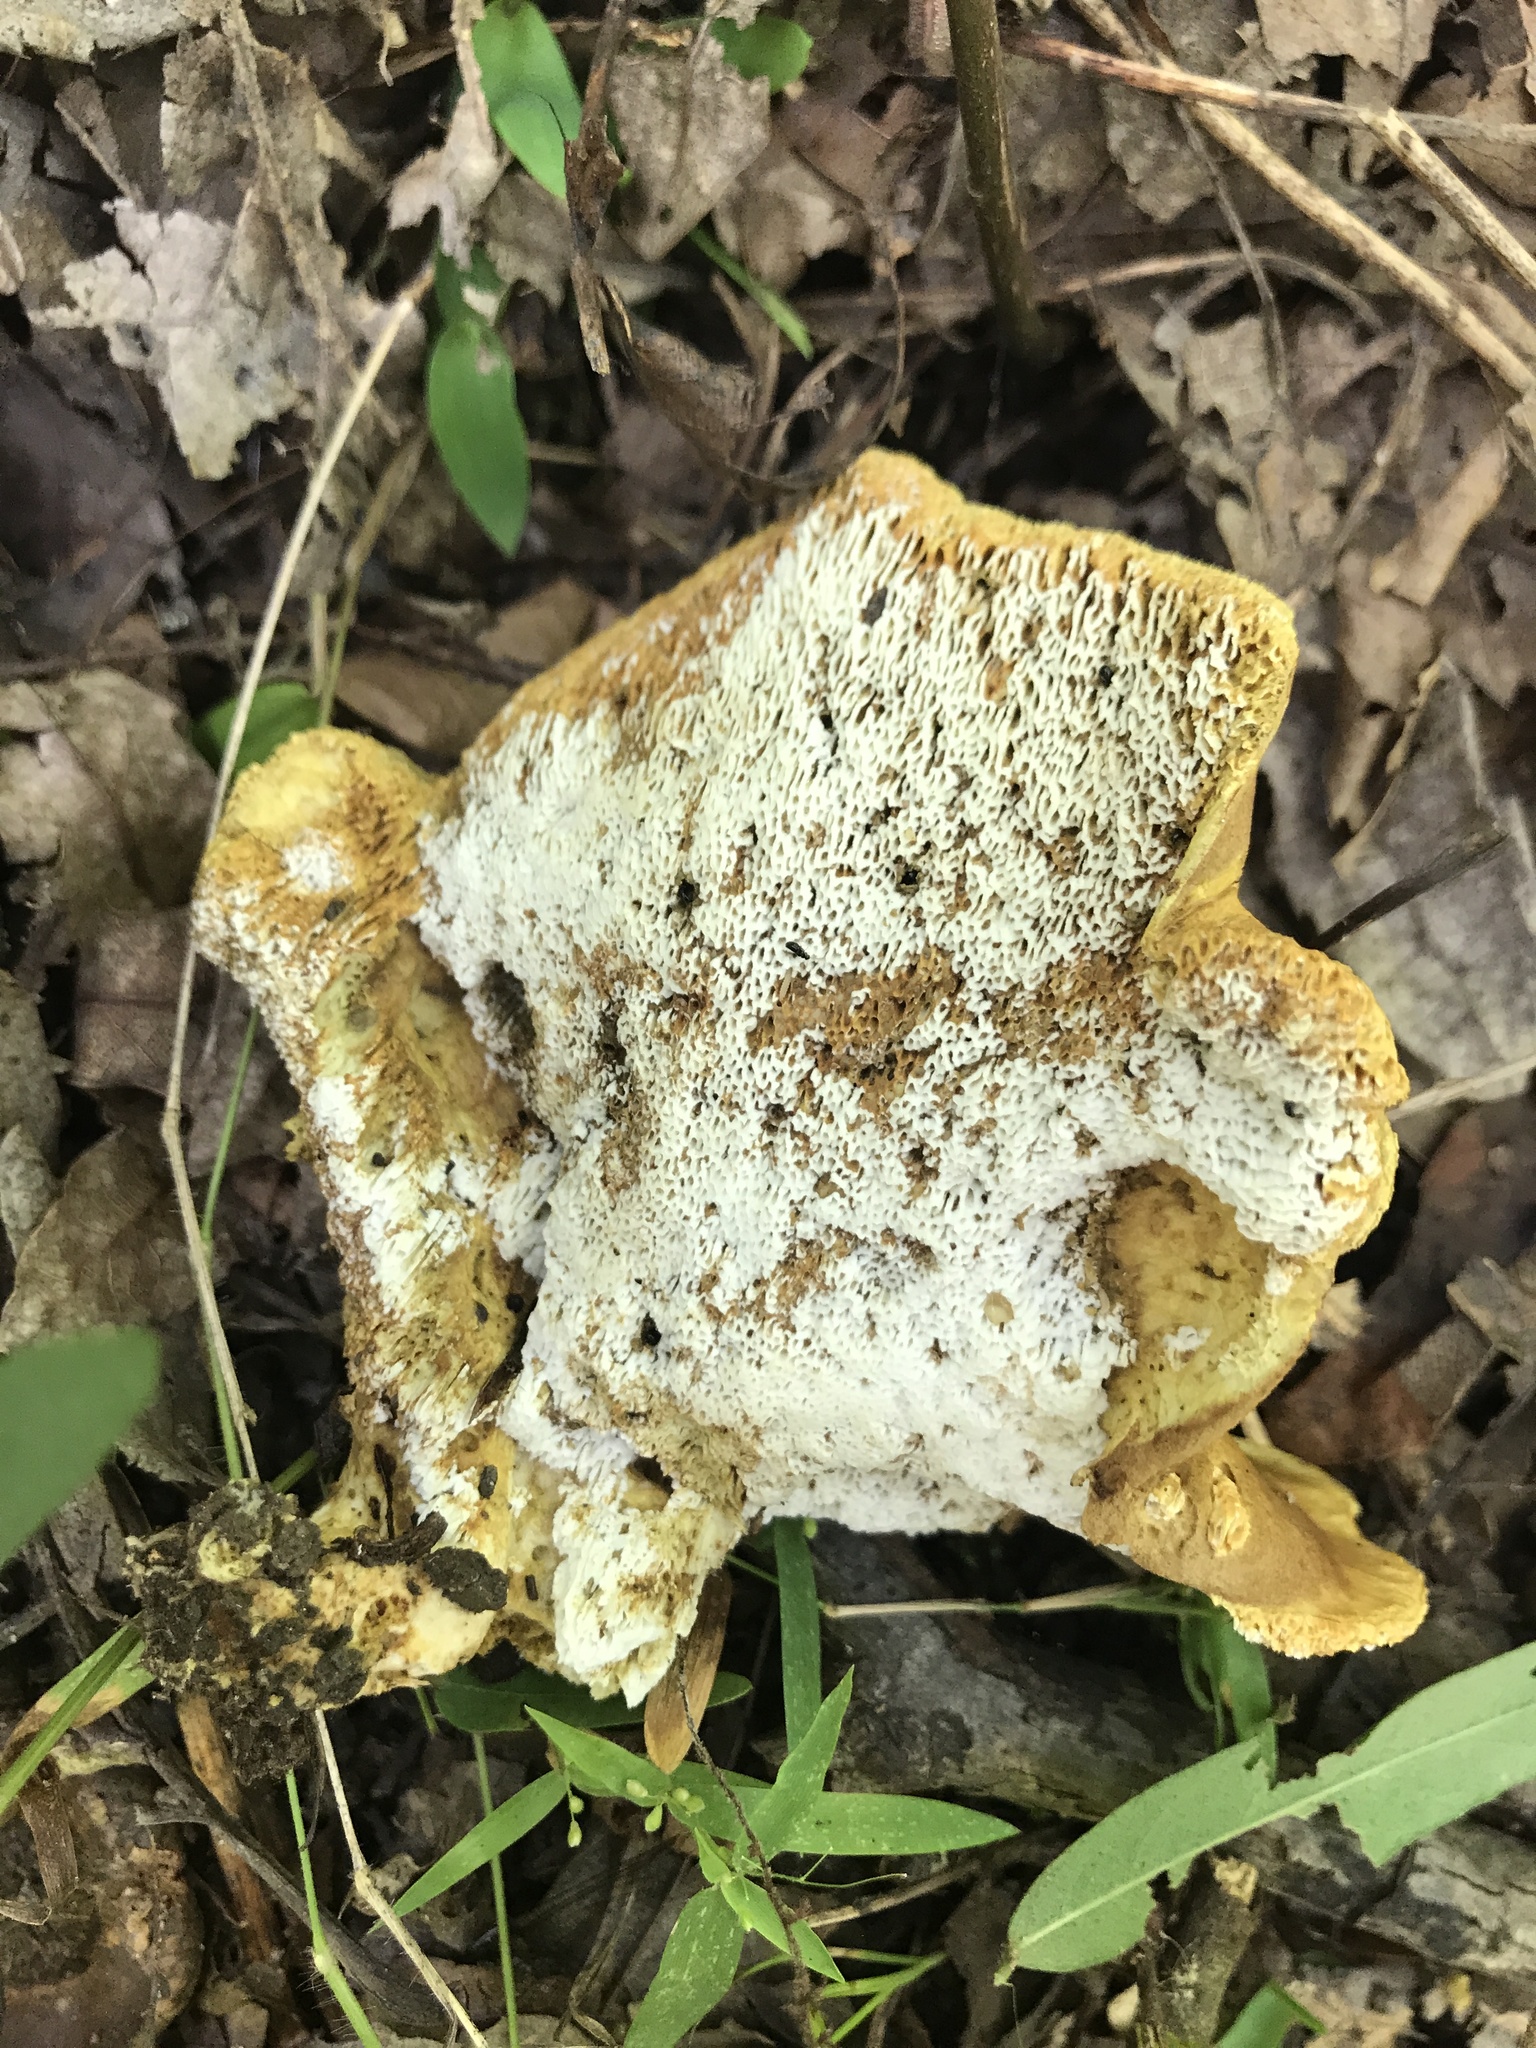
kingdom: Fungi
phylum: Basidiomycota
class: Agaricomycetes
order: Russulales
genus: Laeticutis
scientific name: Laeticutis cristata
